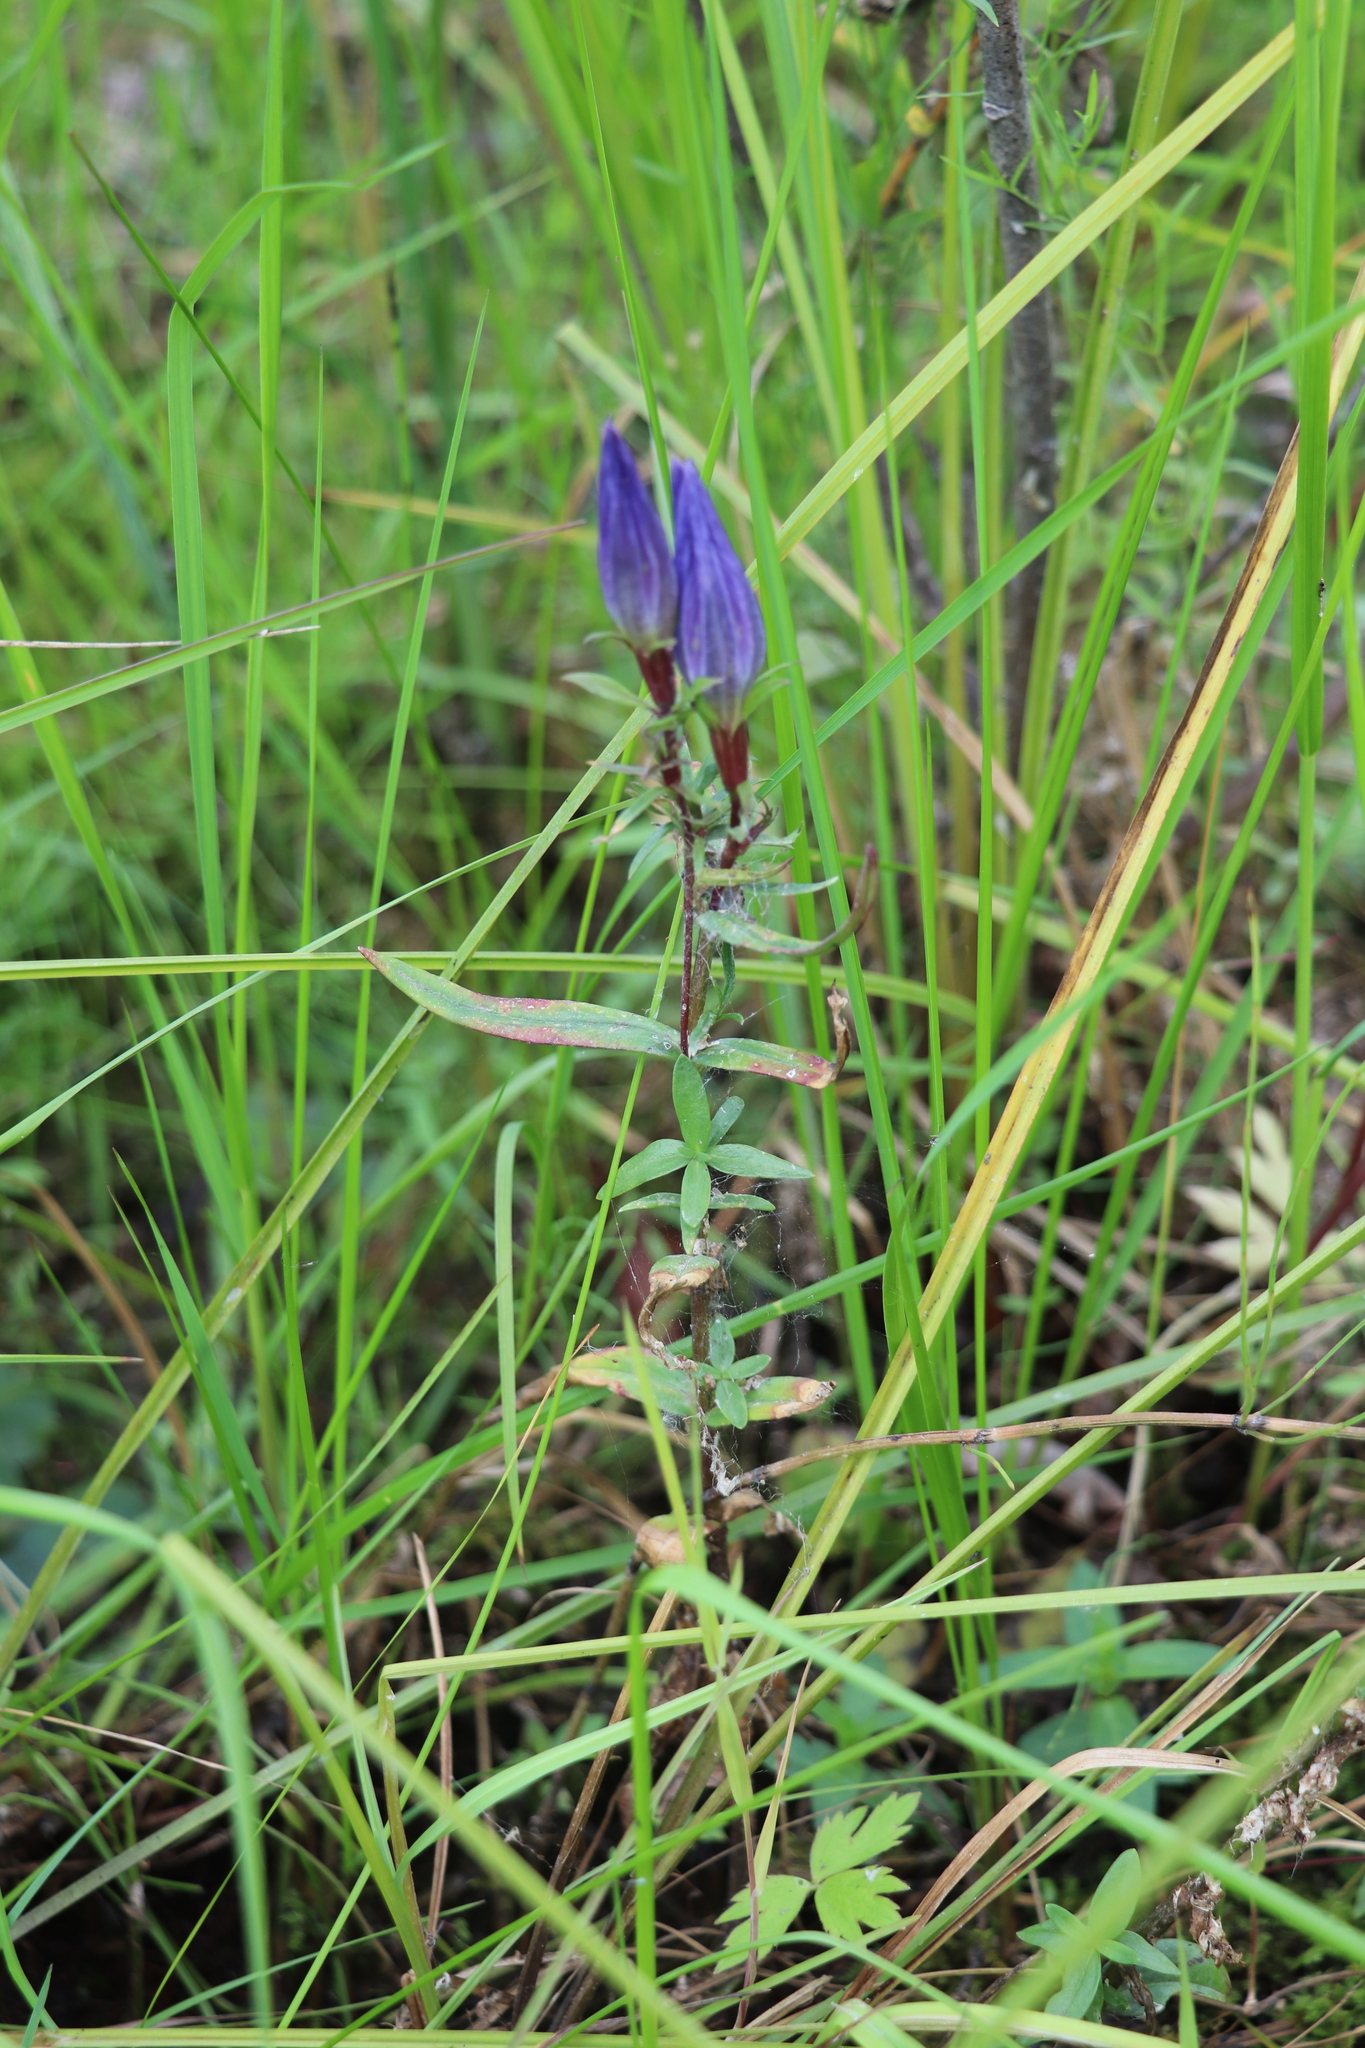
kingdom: Plantae
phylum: Tracheophyta
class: Magnoliopsida
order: Gentianales
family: Gentianaceae
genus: Gentiana
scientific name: Gentiana pneumonanthe
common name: Marsh gentian
